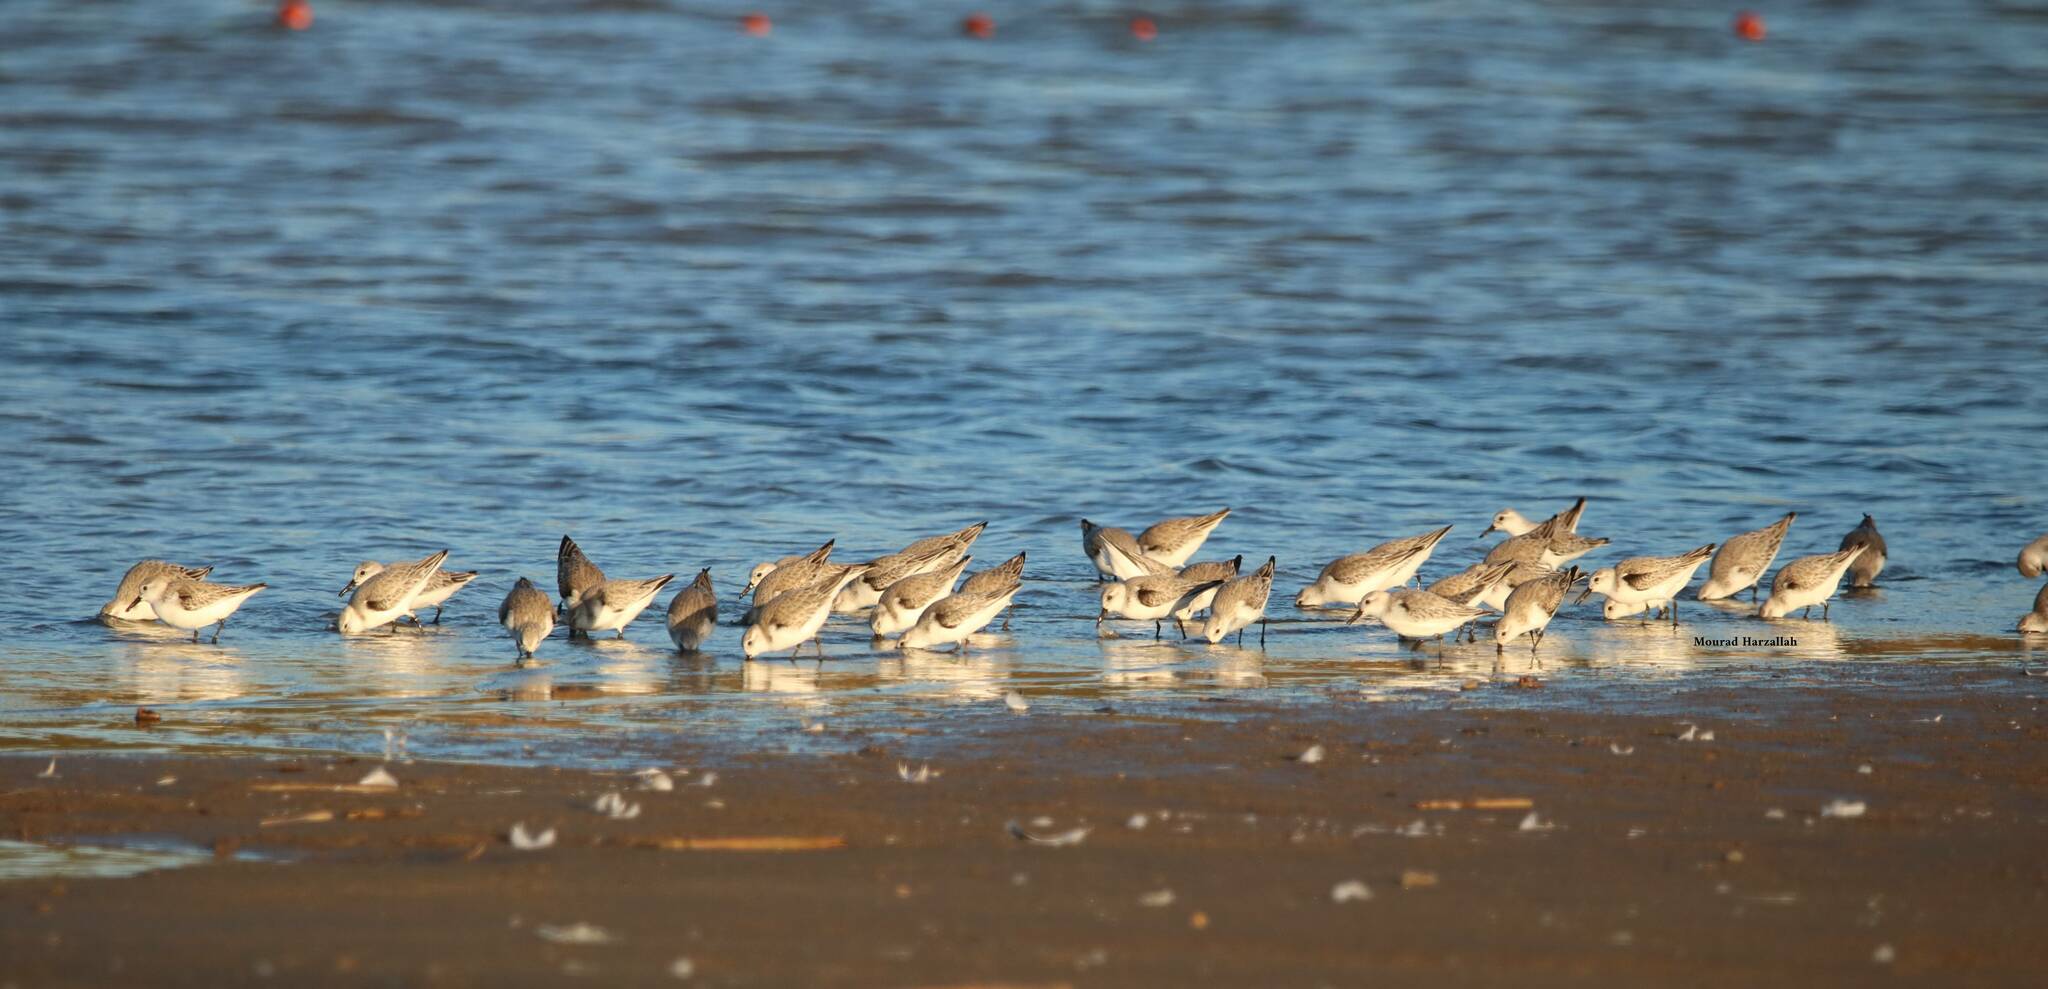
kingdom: Animalia
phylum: Chordata
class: Aves
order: Charadriiformes
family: Scolopacidae
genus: Calidris
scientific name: Calidris alba
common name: Sanderling
